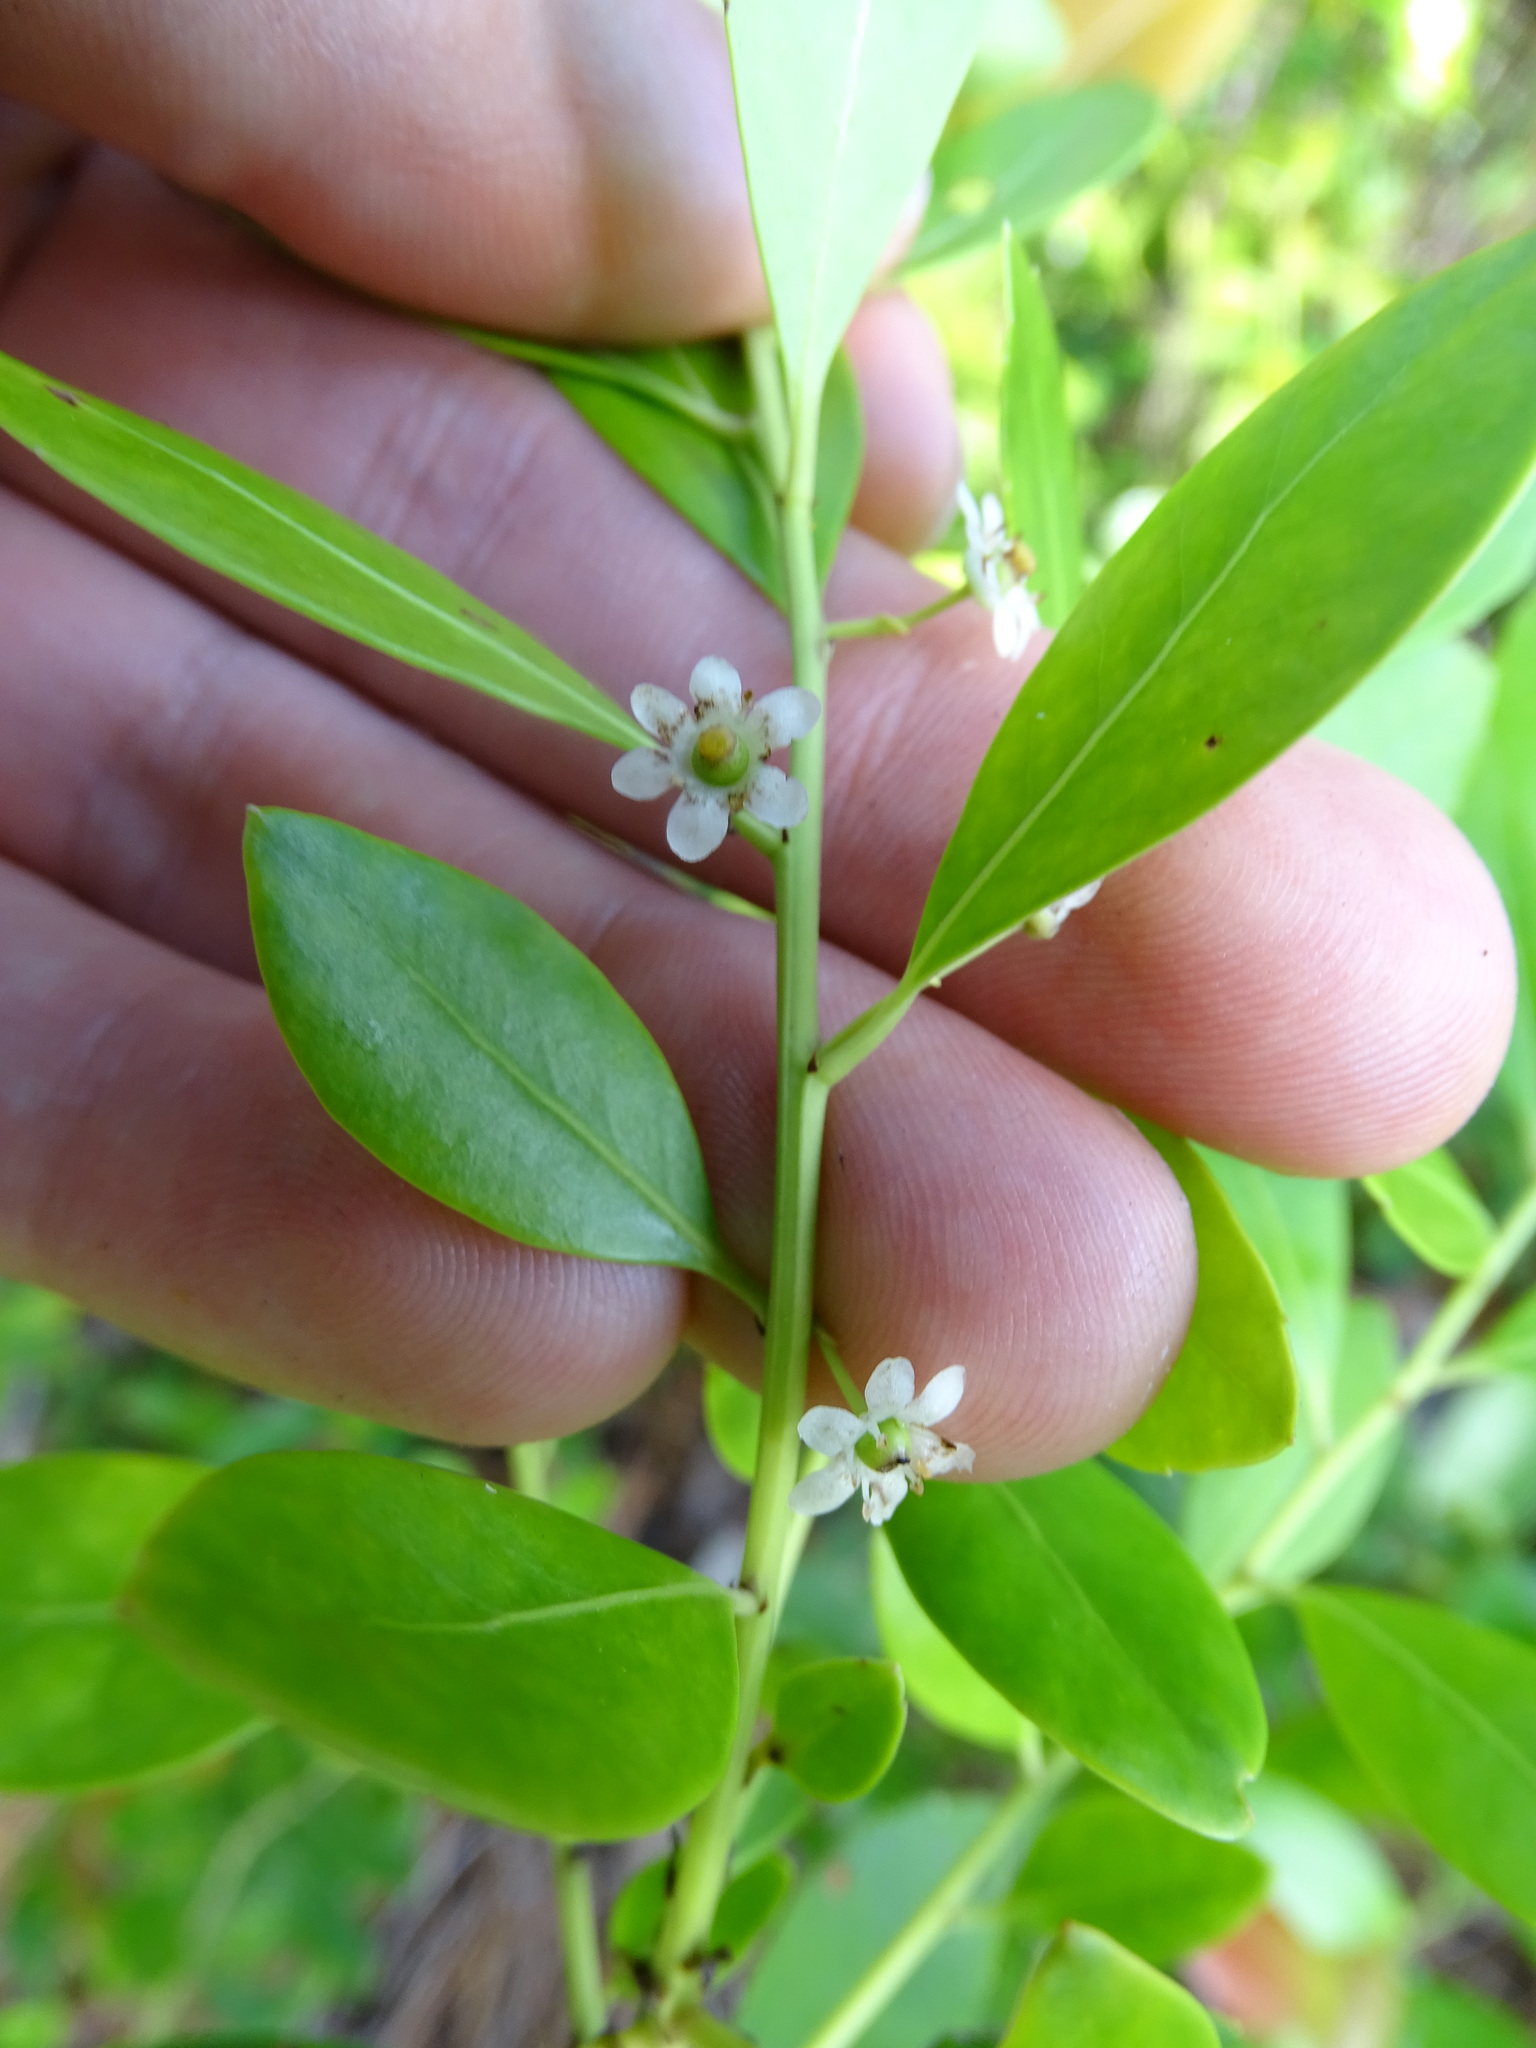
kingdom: Plantae
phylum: Tracheophyta
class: Magnoliopsida
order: Aquifoliales
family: Aquifoliaceae
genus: Ilex
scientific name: Ilex glabra
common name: Bitter gallberry
